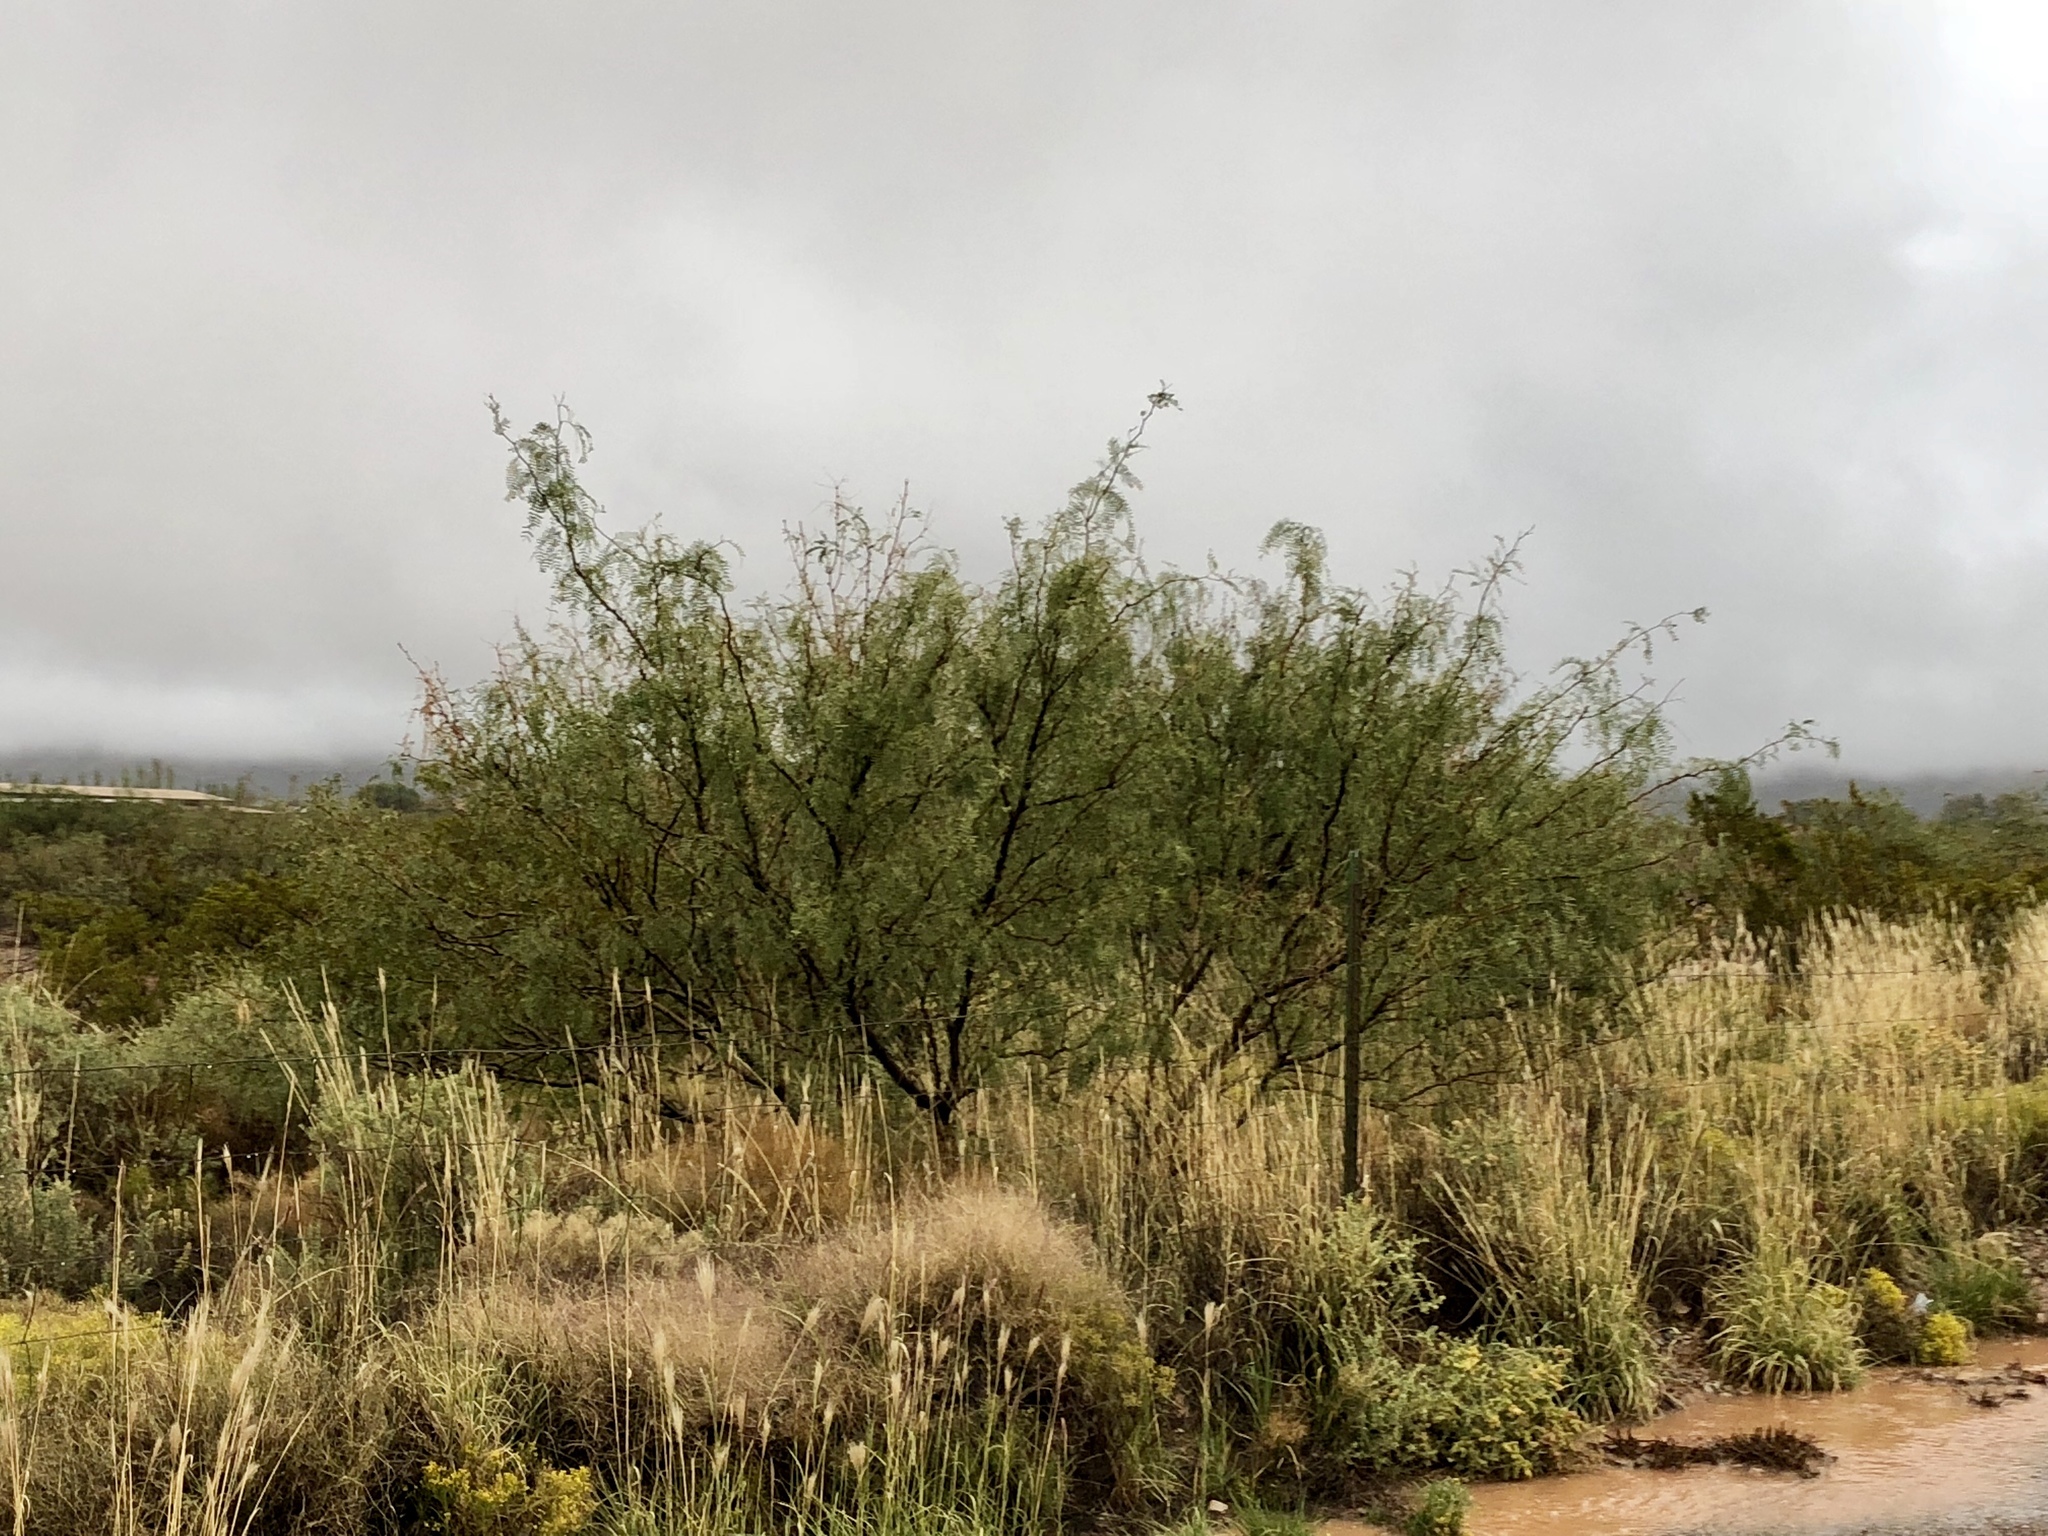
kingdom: Plantae
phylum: Tracheophyta
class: Magnoliopsida
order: Fabales
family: Fabaceae
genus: Prosopis
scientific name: Prosopis glandulosa
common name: Honey mesquite
